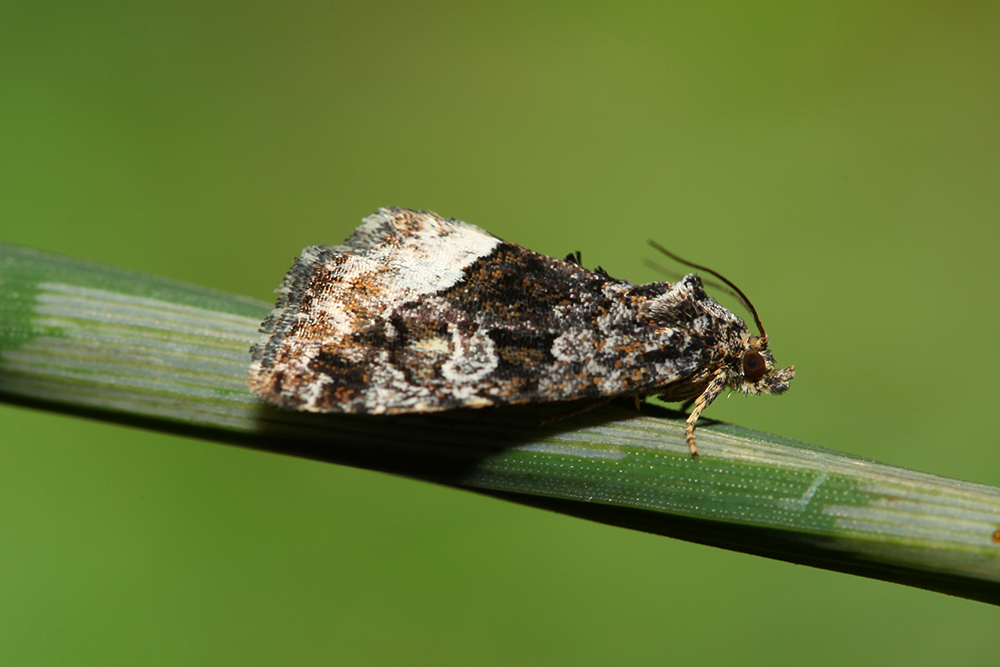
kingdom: Animalia
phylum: Arthropoda
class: Insecta
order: Lepidoptera
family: Noctuidae
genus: Deltote
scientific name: Deltote pygarga
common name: Marbled white spot
